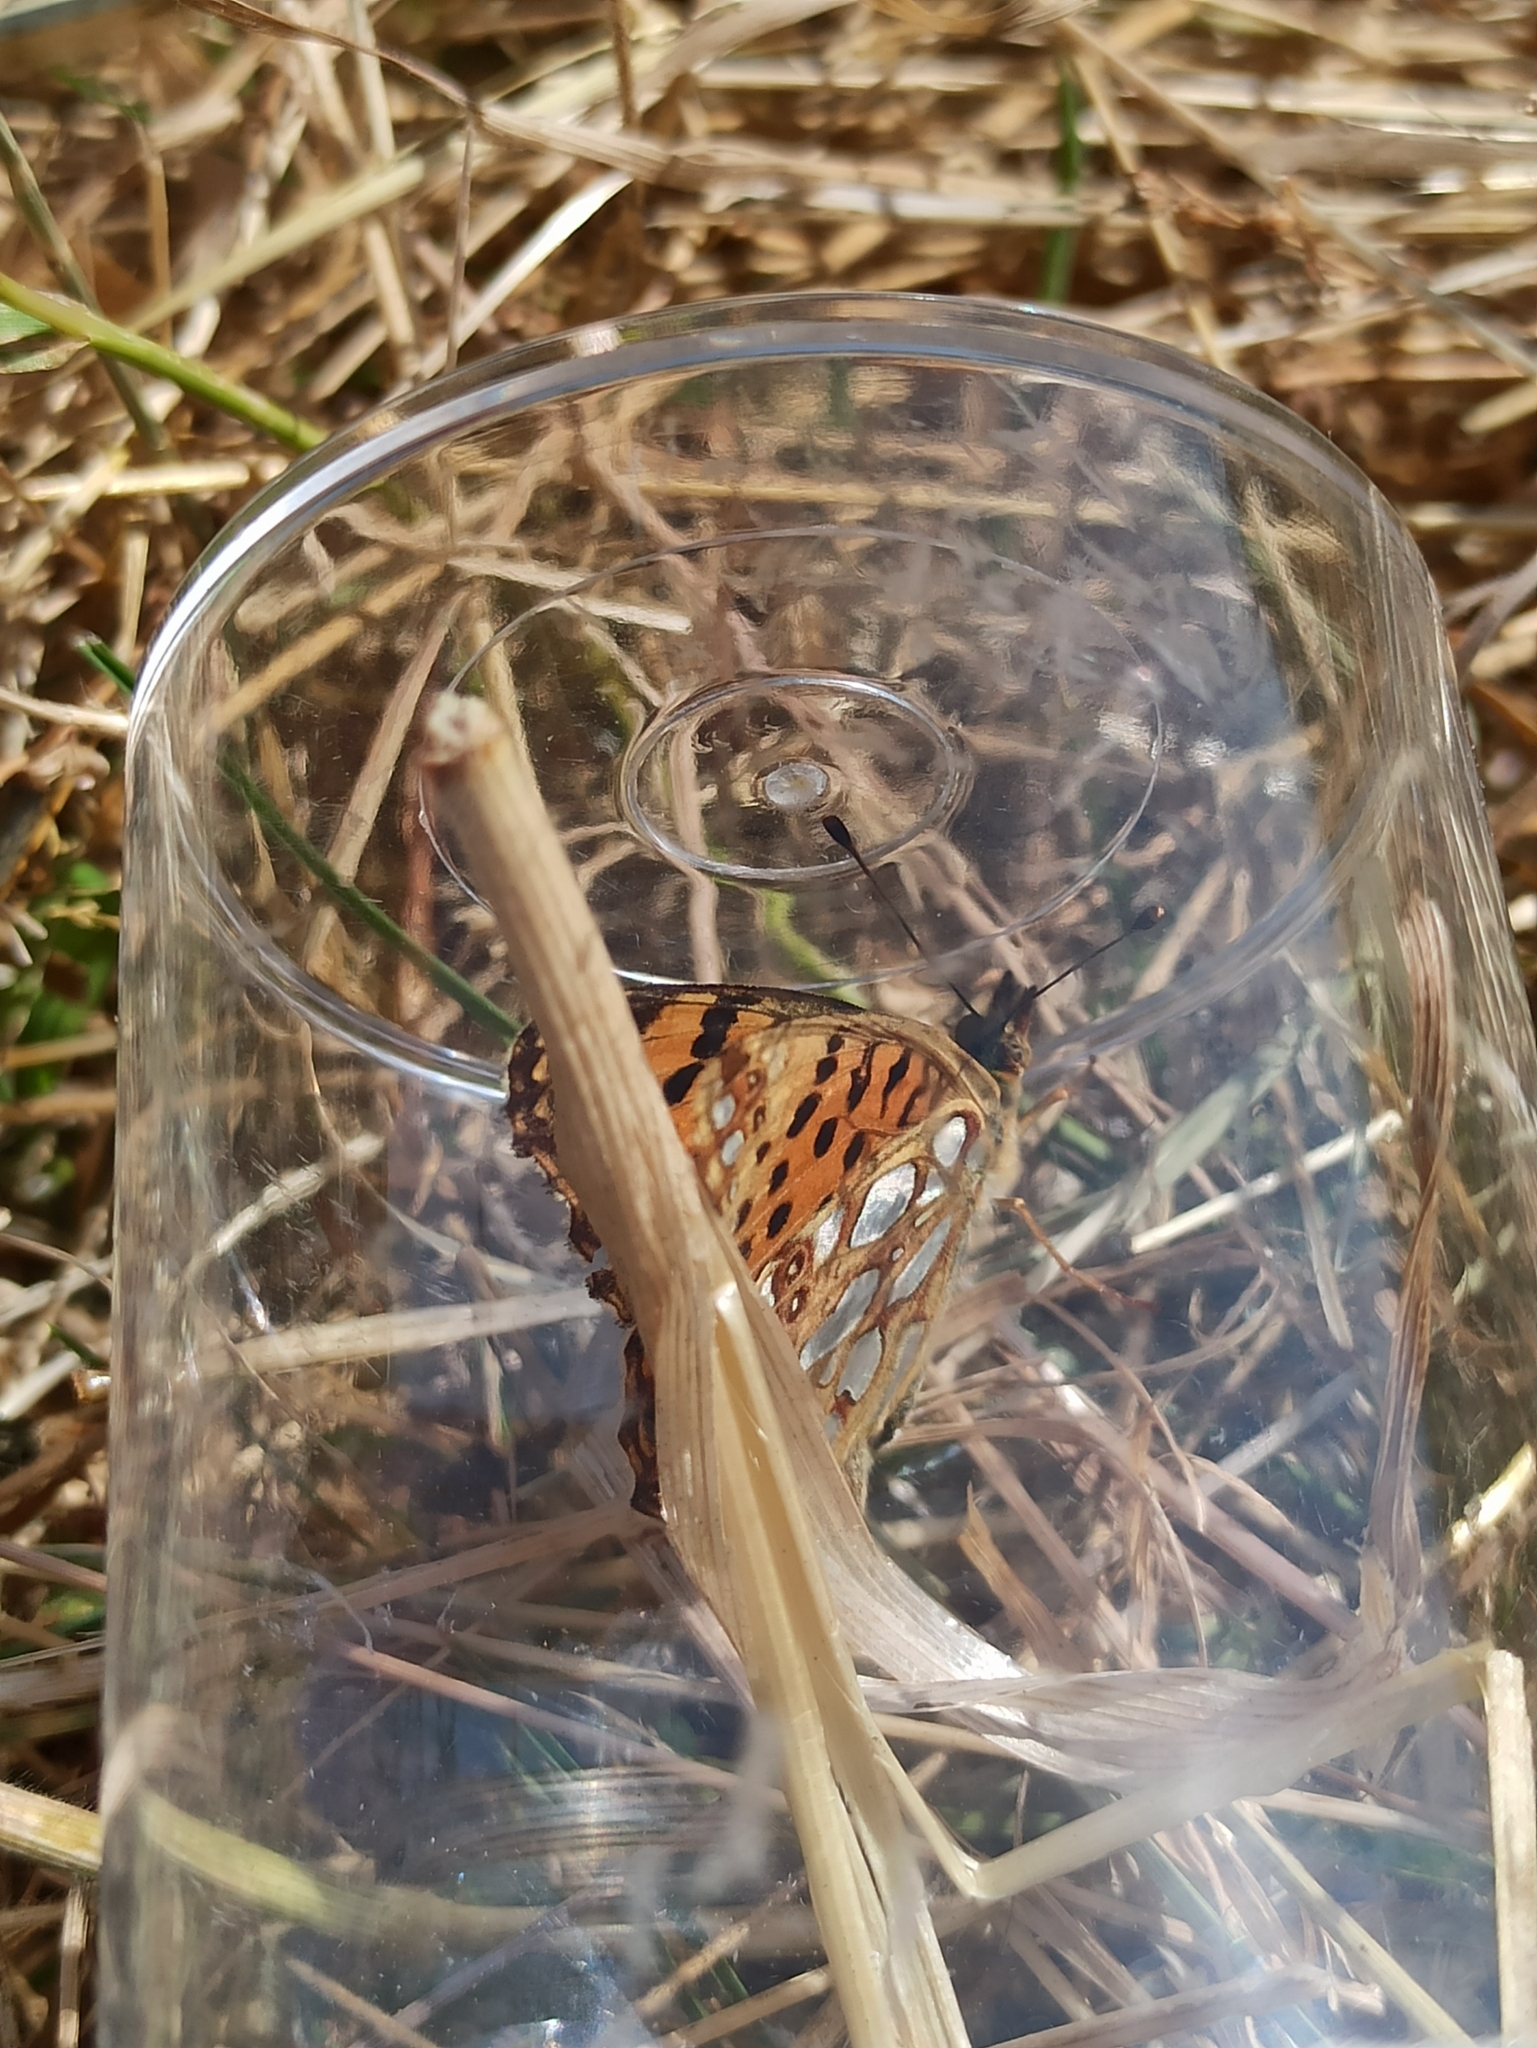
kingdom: Animalia
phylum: Arthropoda
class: Insecta
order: Lepidoptera
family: Nymphalidae
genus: Issoria
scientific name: Issoria lathonia
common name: Queen of spain fritillary
